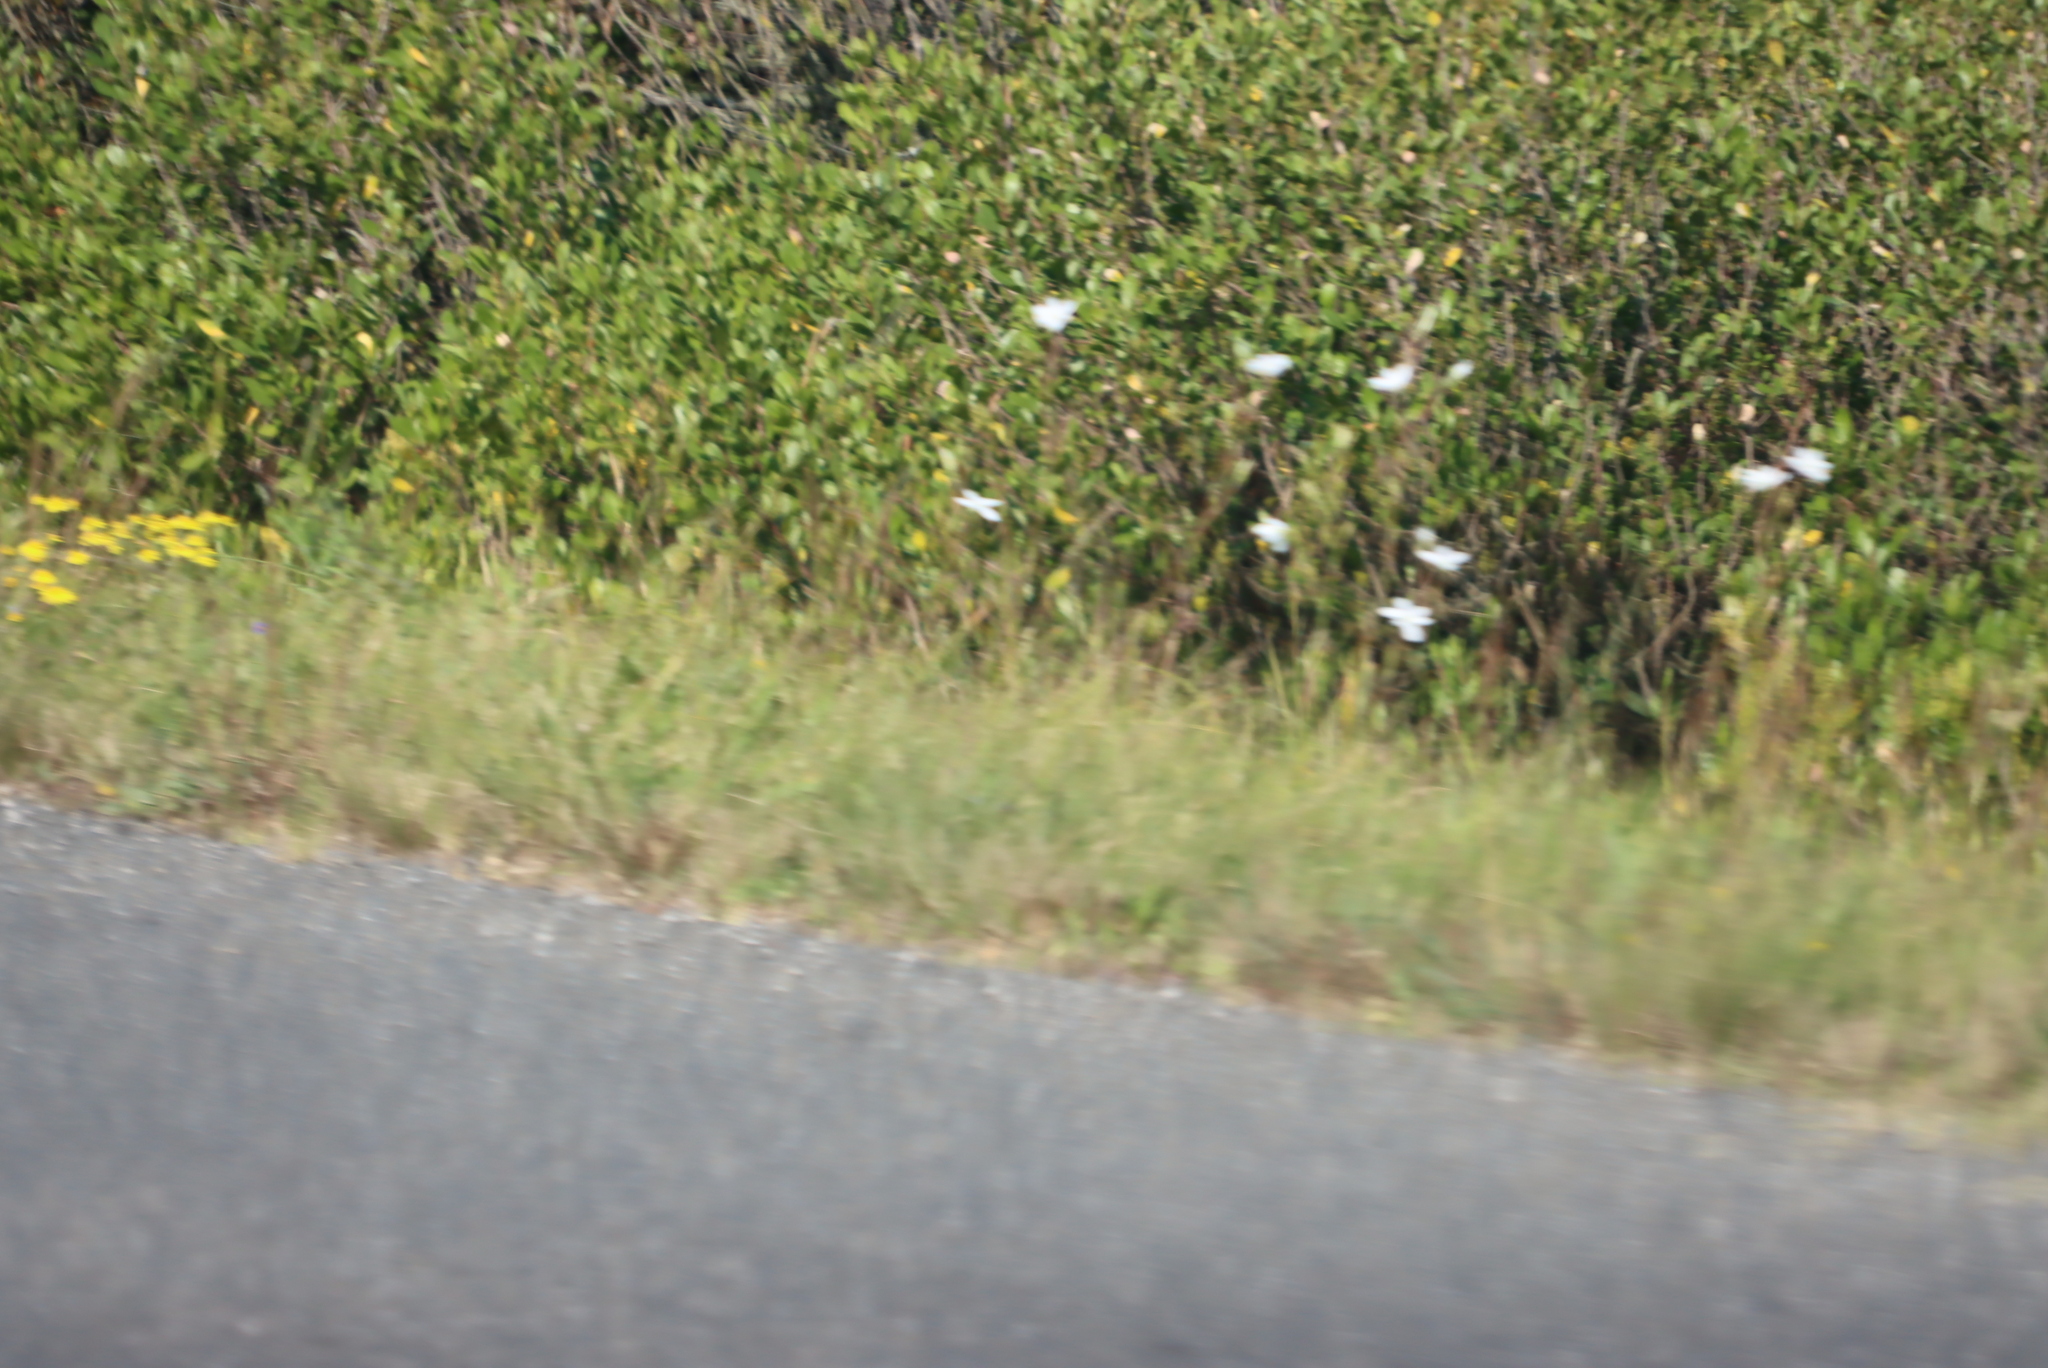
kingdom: Plantae
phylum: Tracheophyta
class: Liliopsida
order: Asparagales
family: Iridaceae
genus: Moraea
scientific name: Moraea polyanthos
